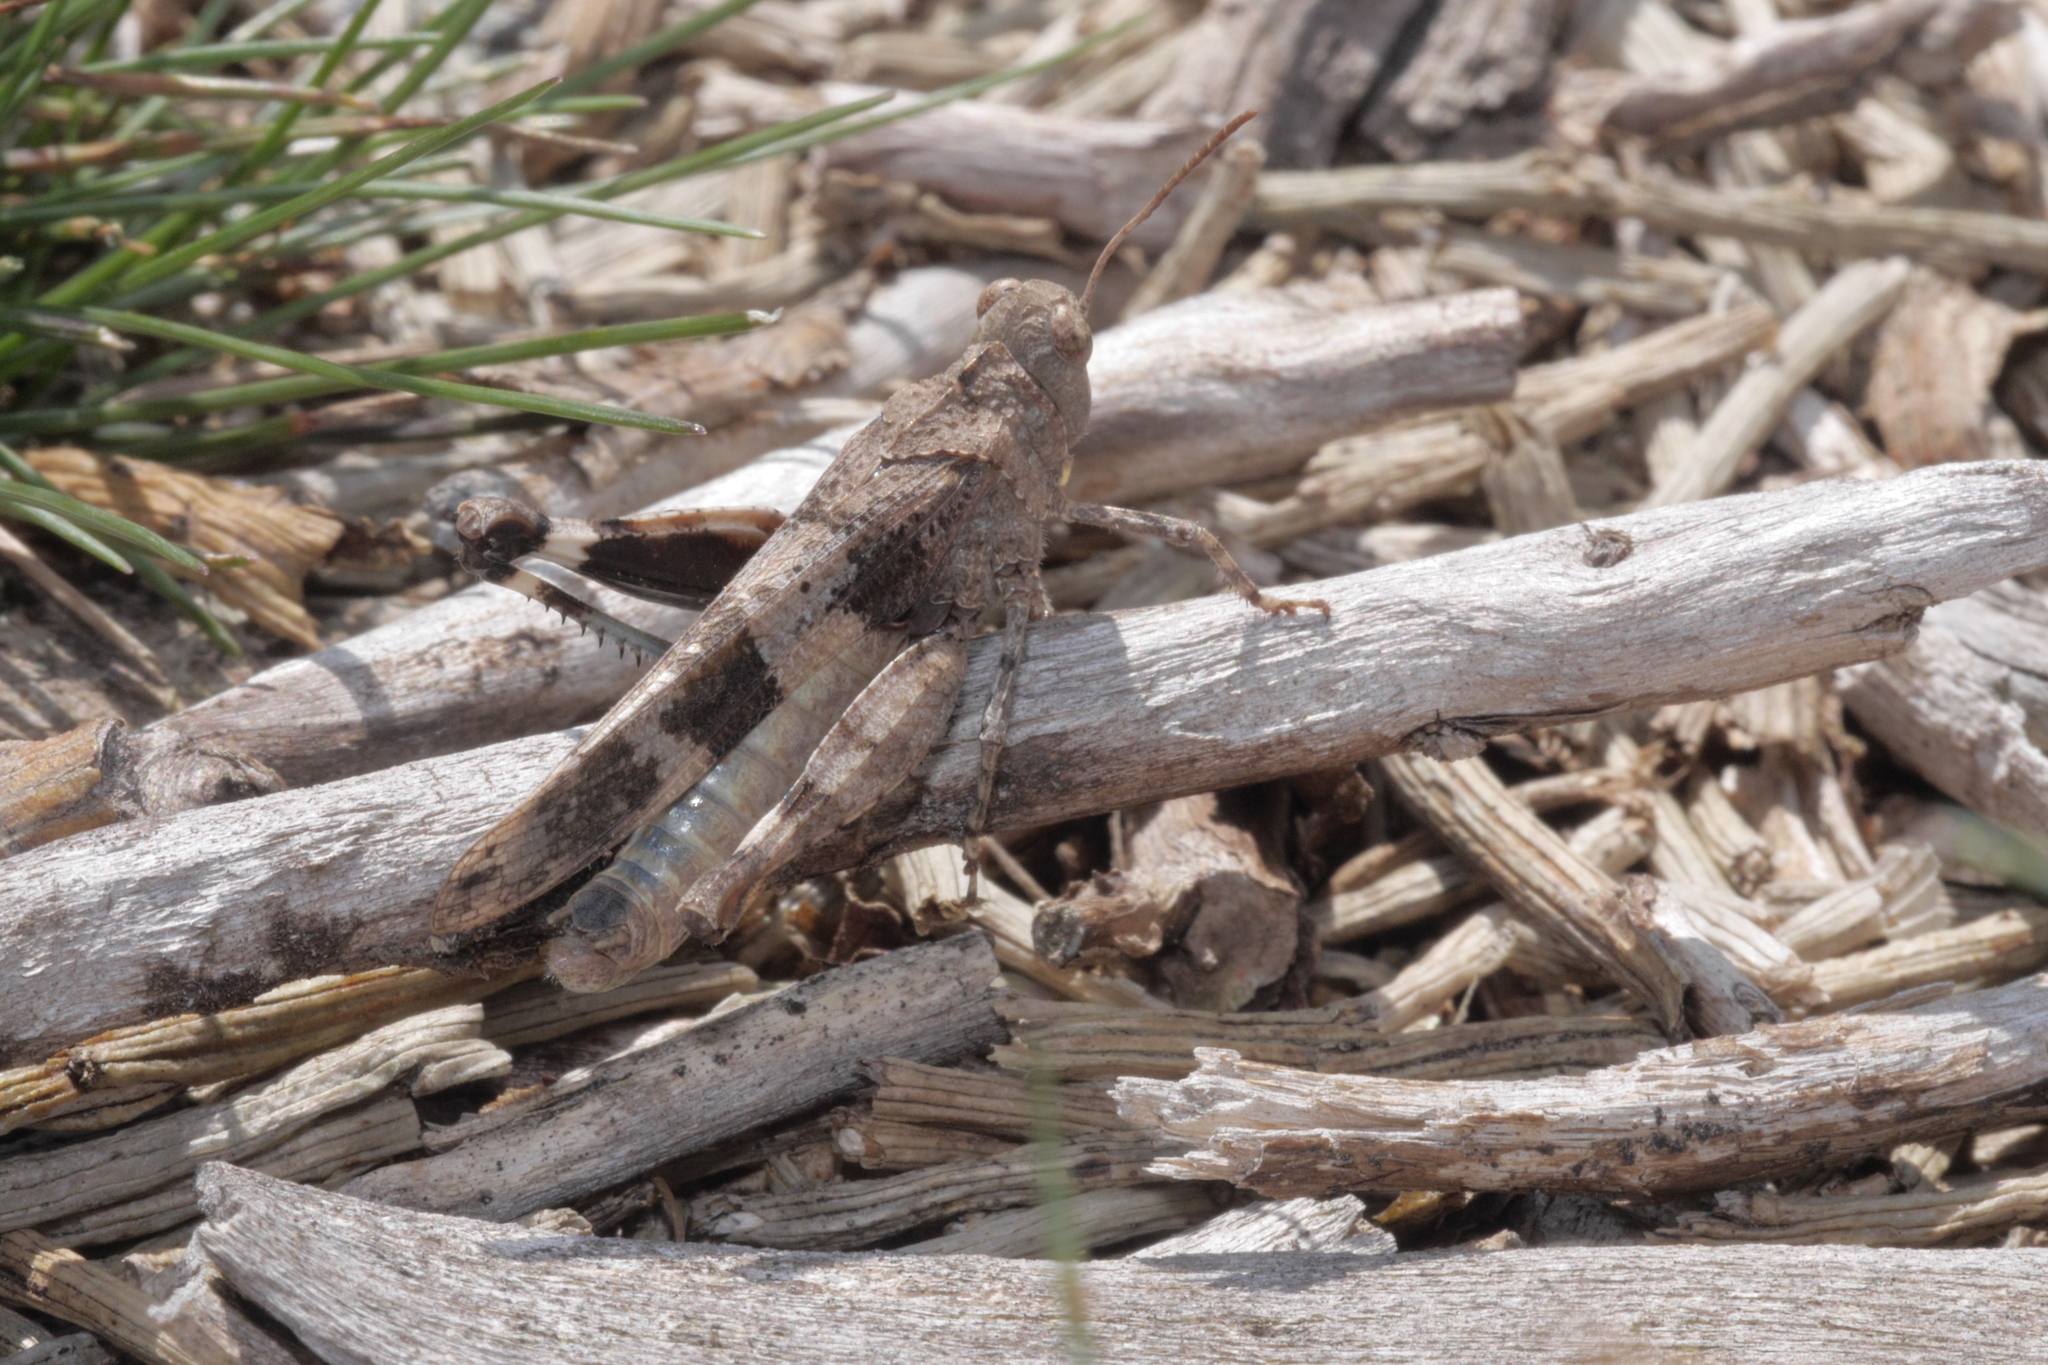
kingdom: Animalia
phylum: Arthropoda
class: Insecta
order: Orthoptera
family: Acrididae
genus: Oedipoda
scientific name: Oedipoda caerulescens
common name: Blue-winged grasshopper
